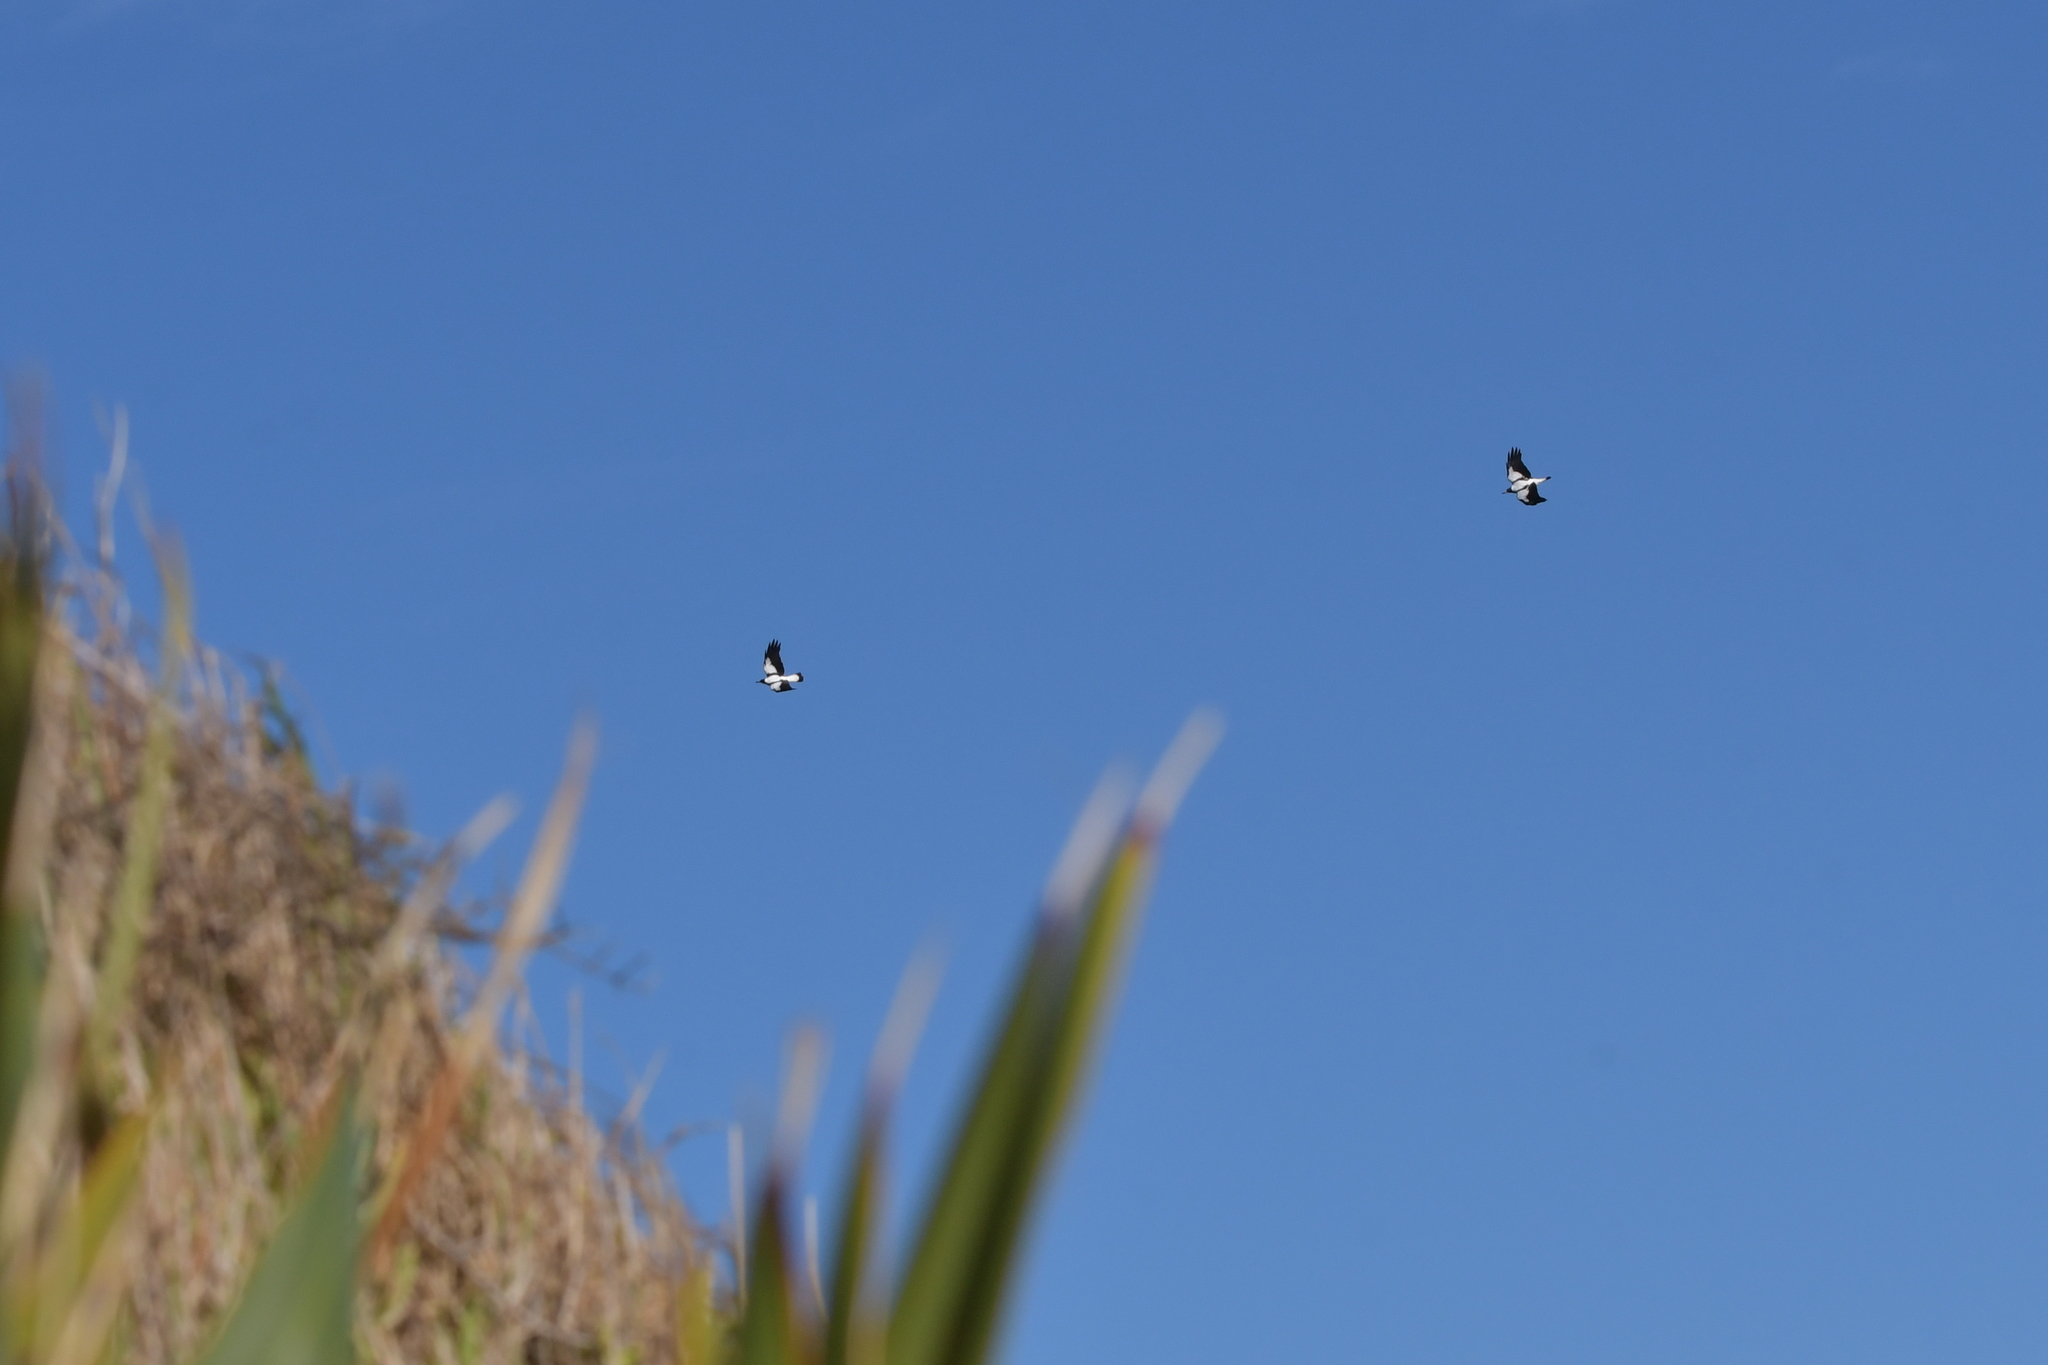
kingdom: Animalia
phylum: Chordata
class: Aves
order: Passeriformes
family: Cracticidae
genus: Gymnorhina
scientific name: Gymnorhina tibicen
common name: Australian magpie
